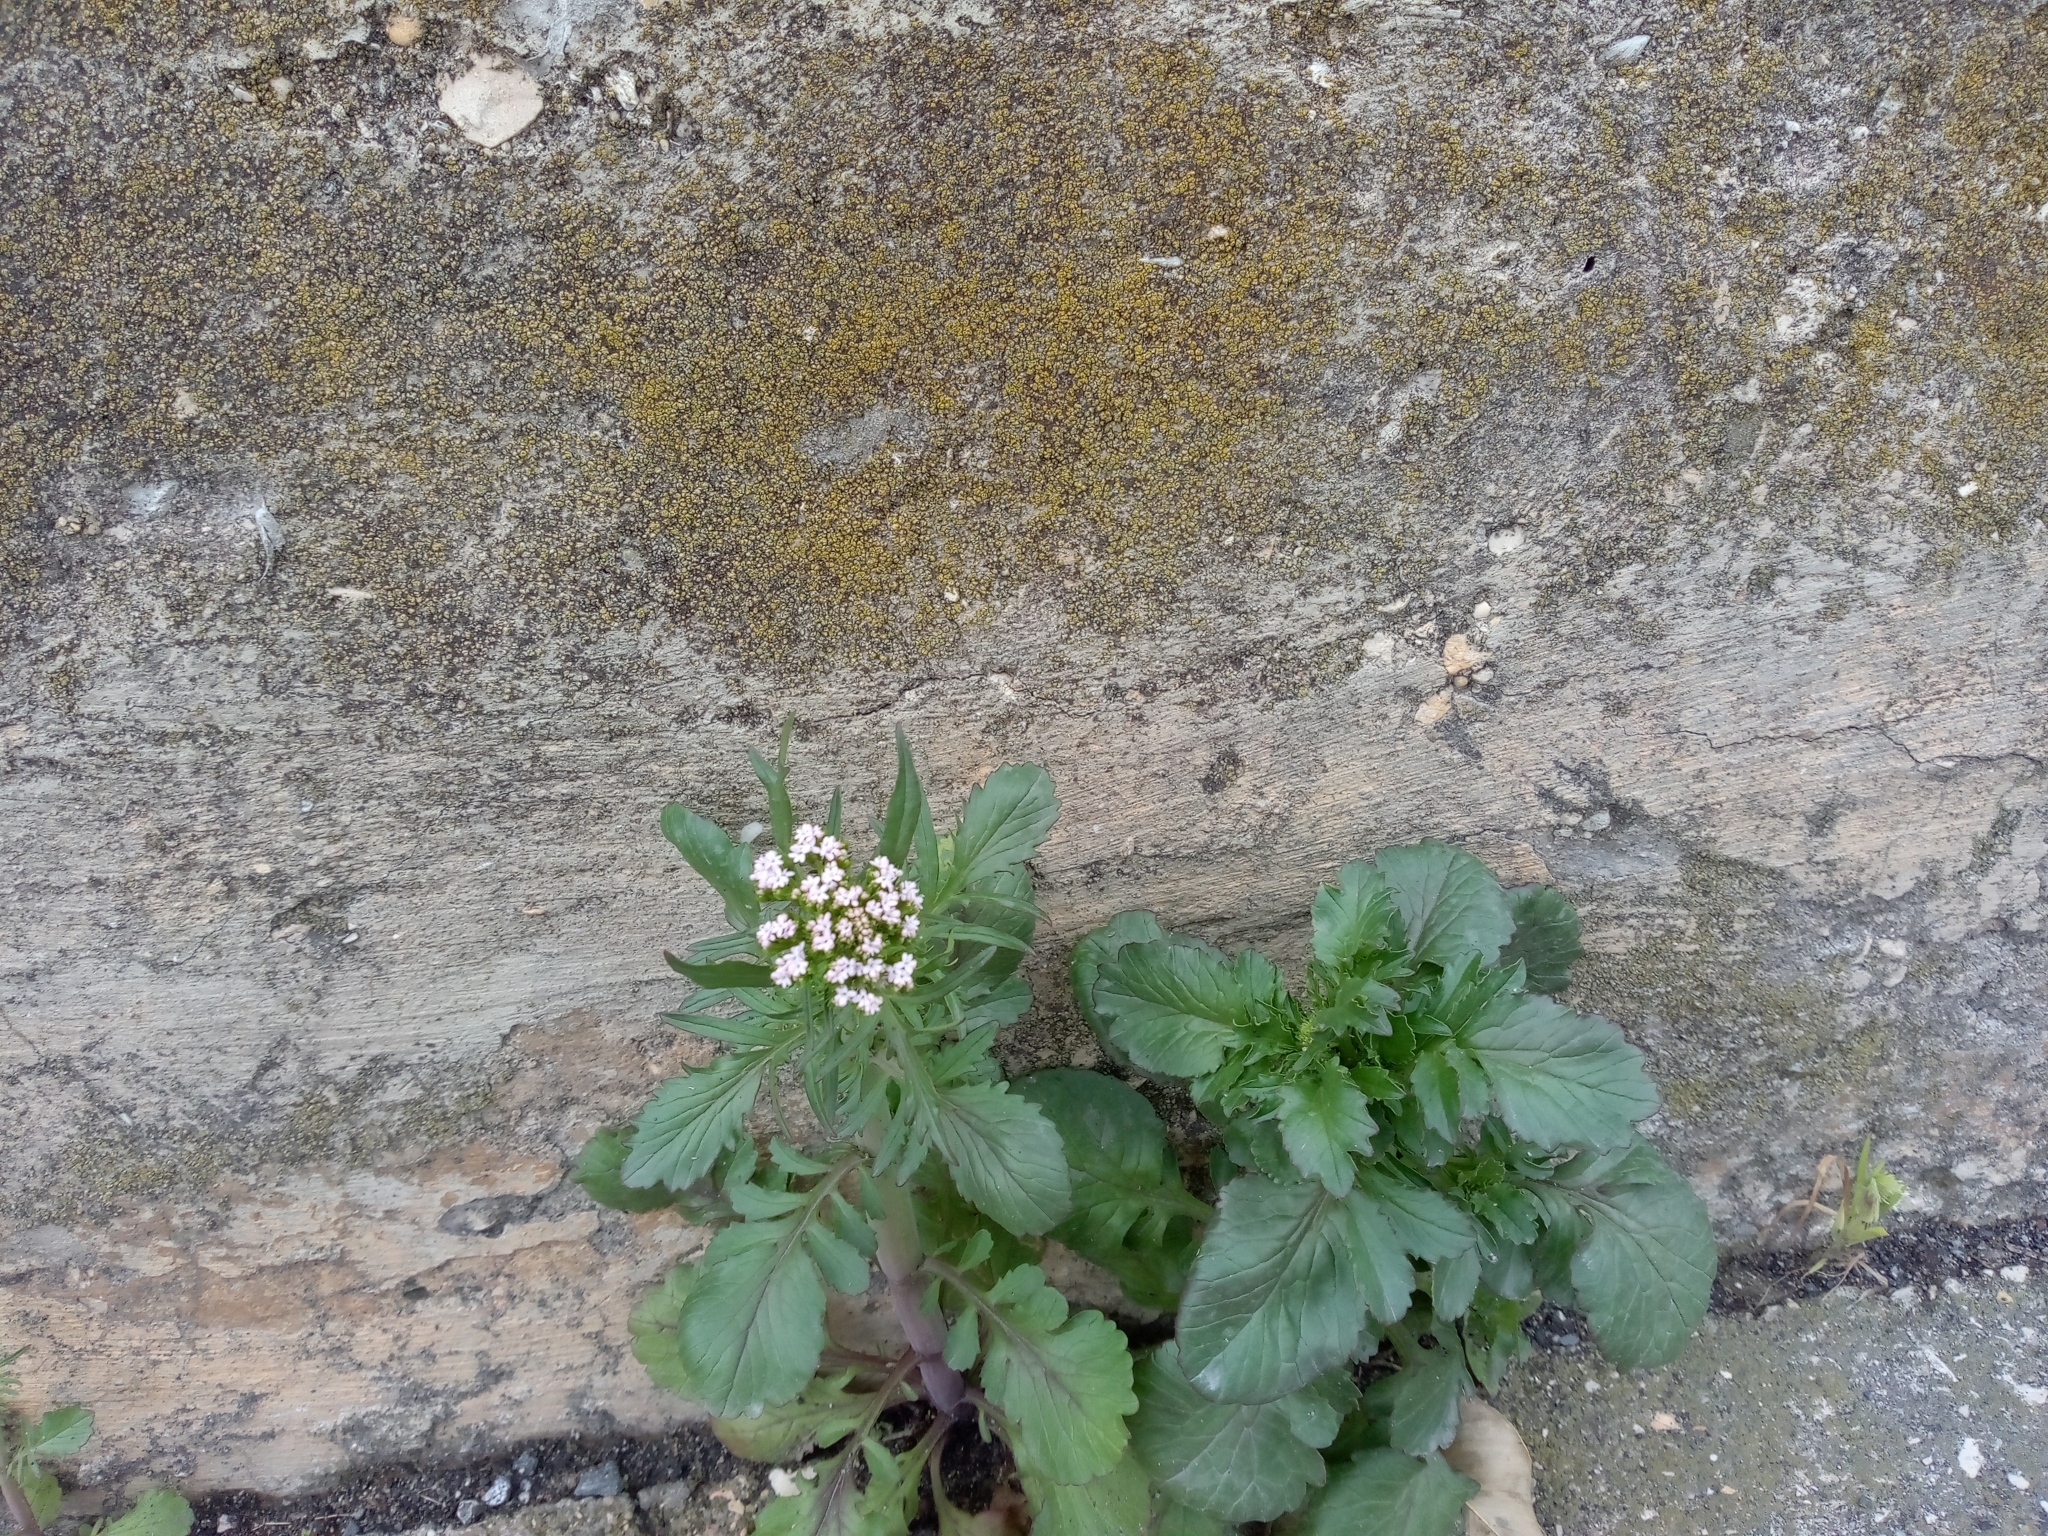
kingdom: Plantae
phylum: Tracheophyta
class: Magnoliopsida
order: Dipsacales
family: Caprifoliaceae
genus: Centranthus
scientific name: Centranthus calcitrapae
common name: Annual valerian
